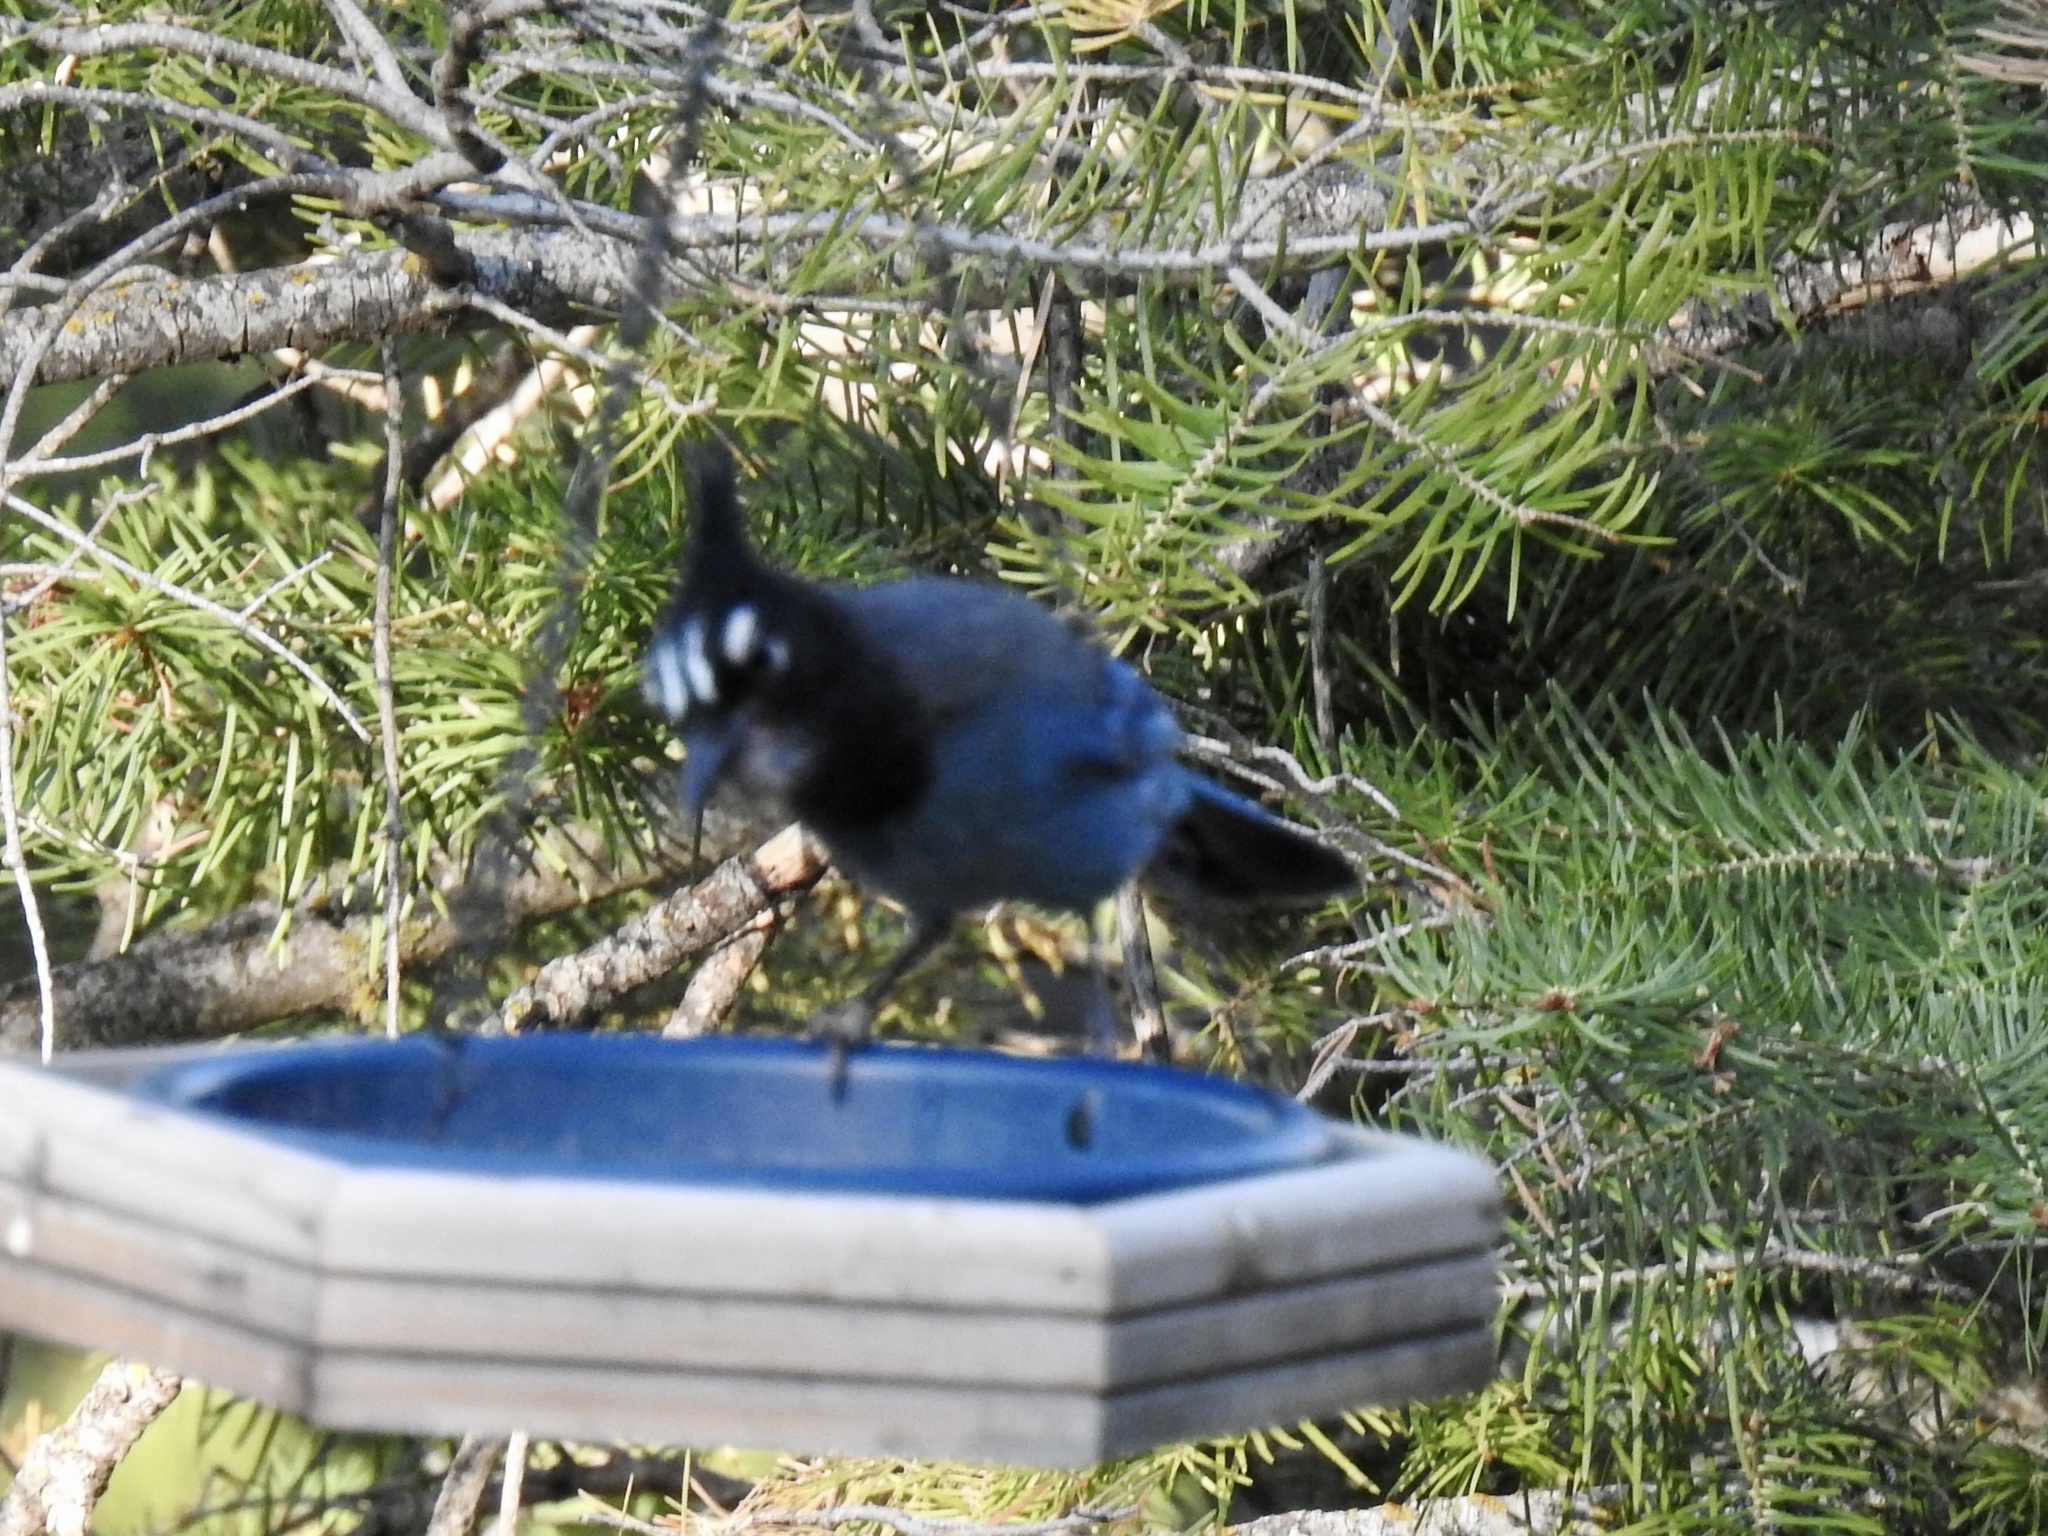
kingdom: Animalia
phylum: Chordata
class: Aves
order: Passeriformes
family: Corvidae
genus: Cyanocitta
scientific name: Cyanocitta stelleri
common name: Steller's jay
